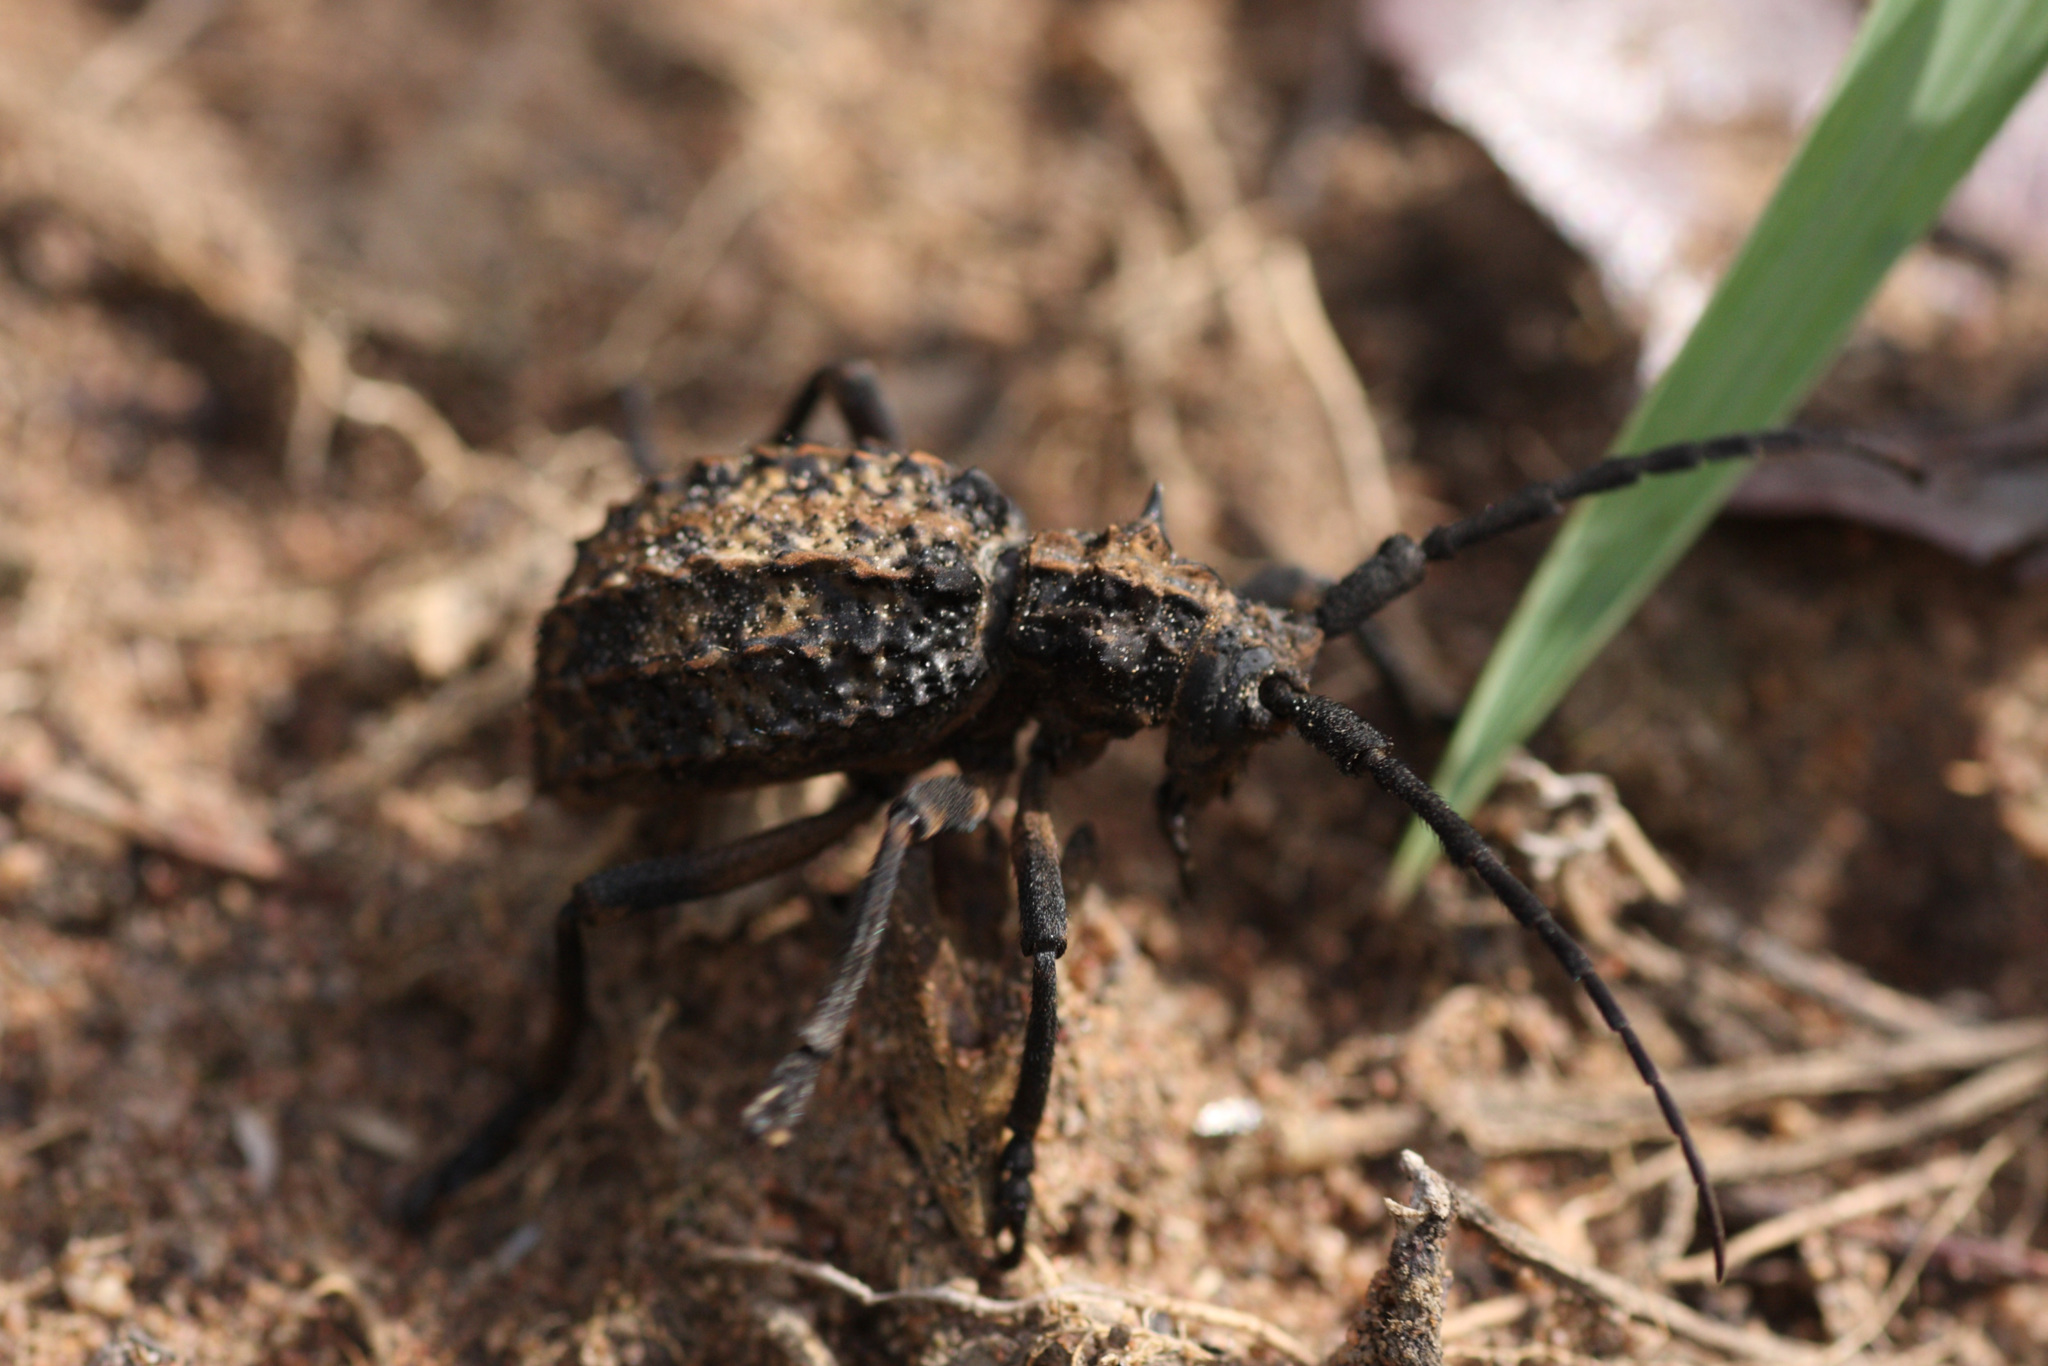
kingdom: Animalia
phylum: Arthropoda
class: Insecta
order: Coleoptera
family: Cerambycidae
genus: Phantasis
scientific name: Phantasis avernica
